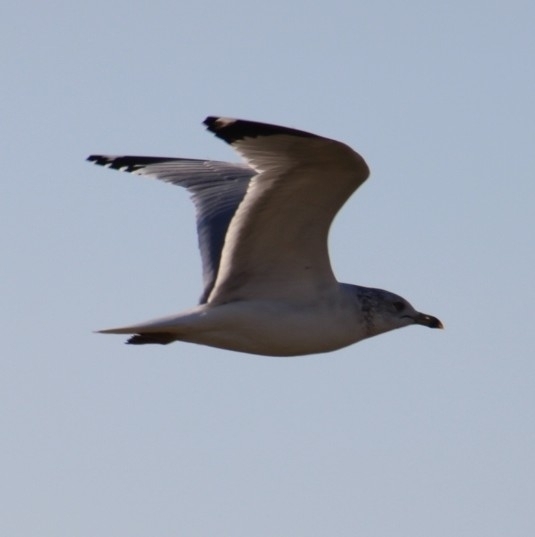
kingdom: Animalia
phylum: Chordata
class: Aves
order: Charadriiformes
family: Laridae
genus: Larus
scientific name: Larus delawarensis
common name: Ring-billed gull
